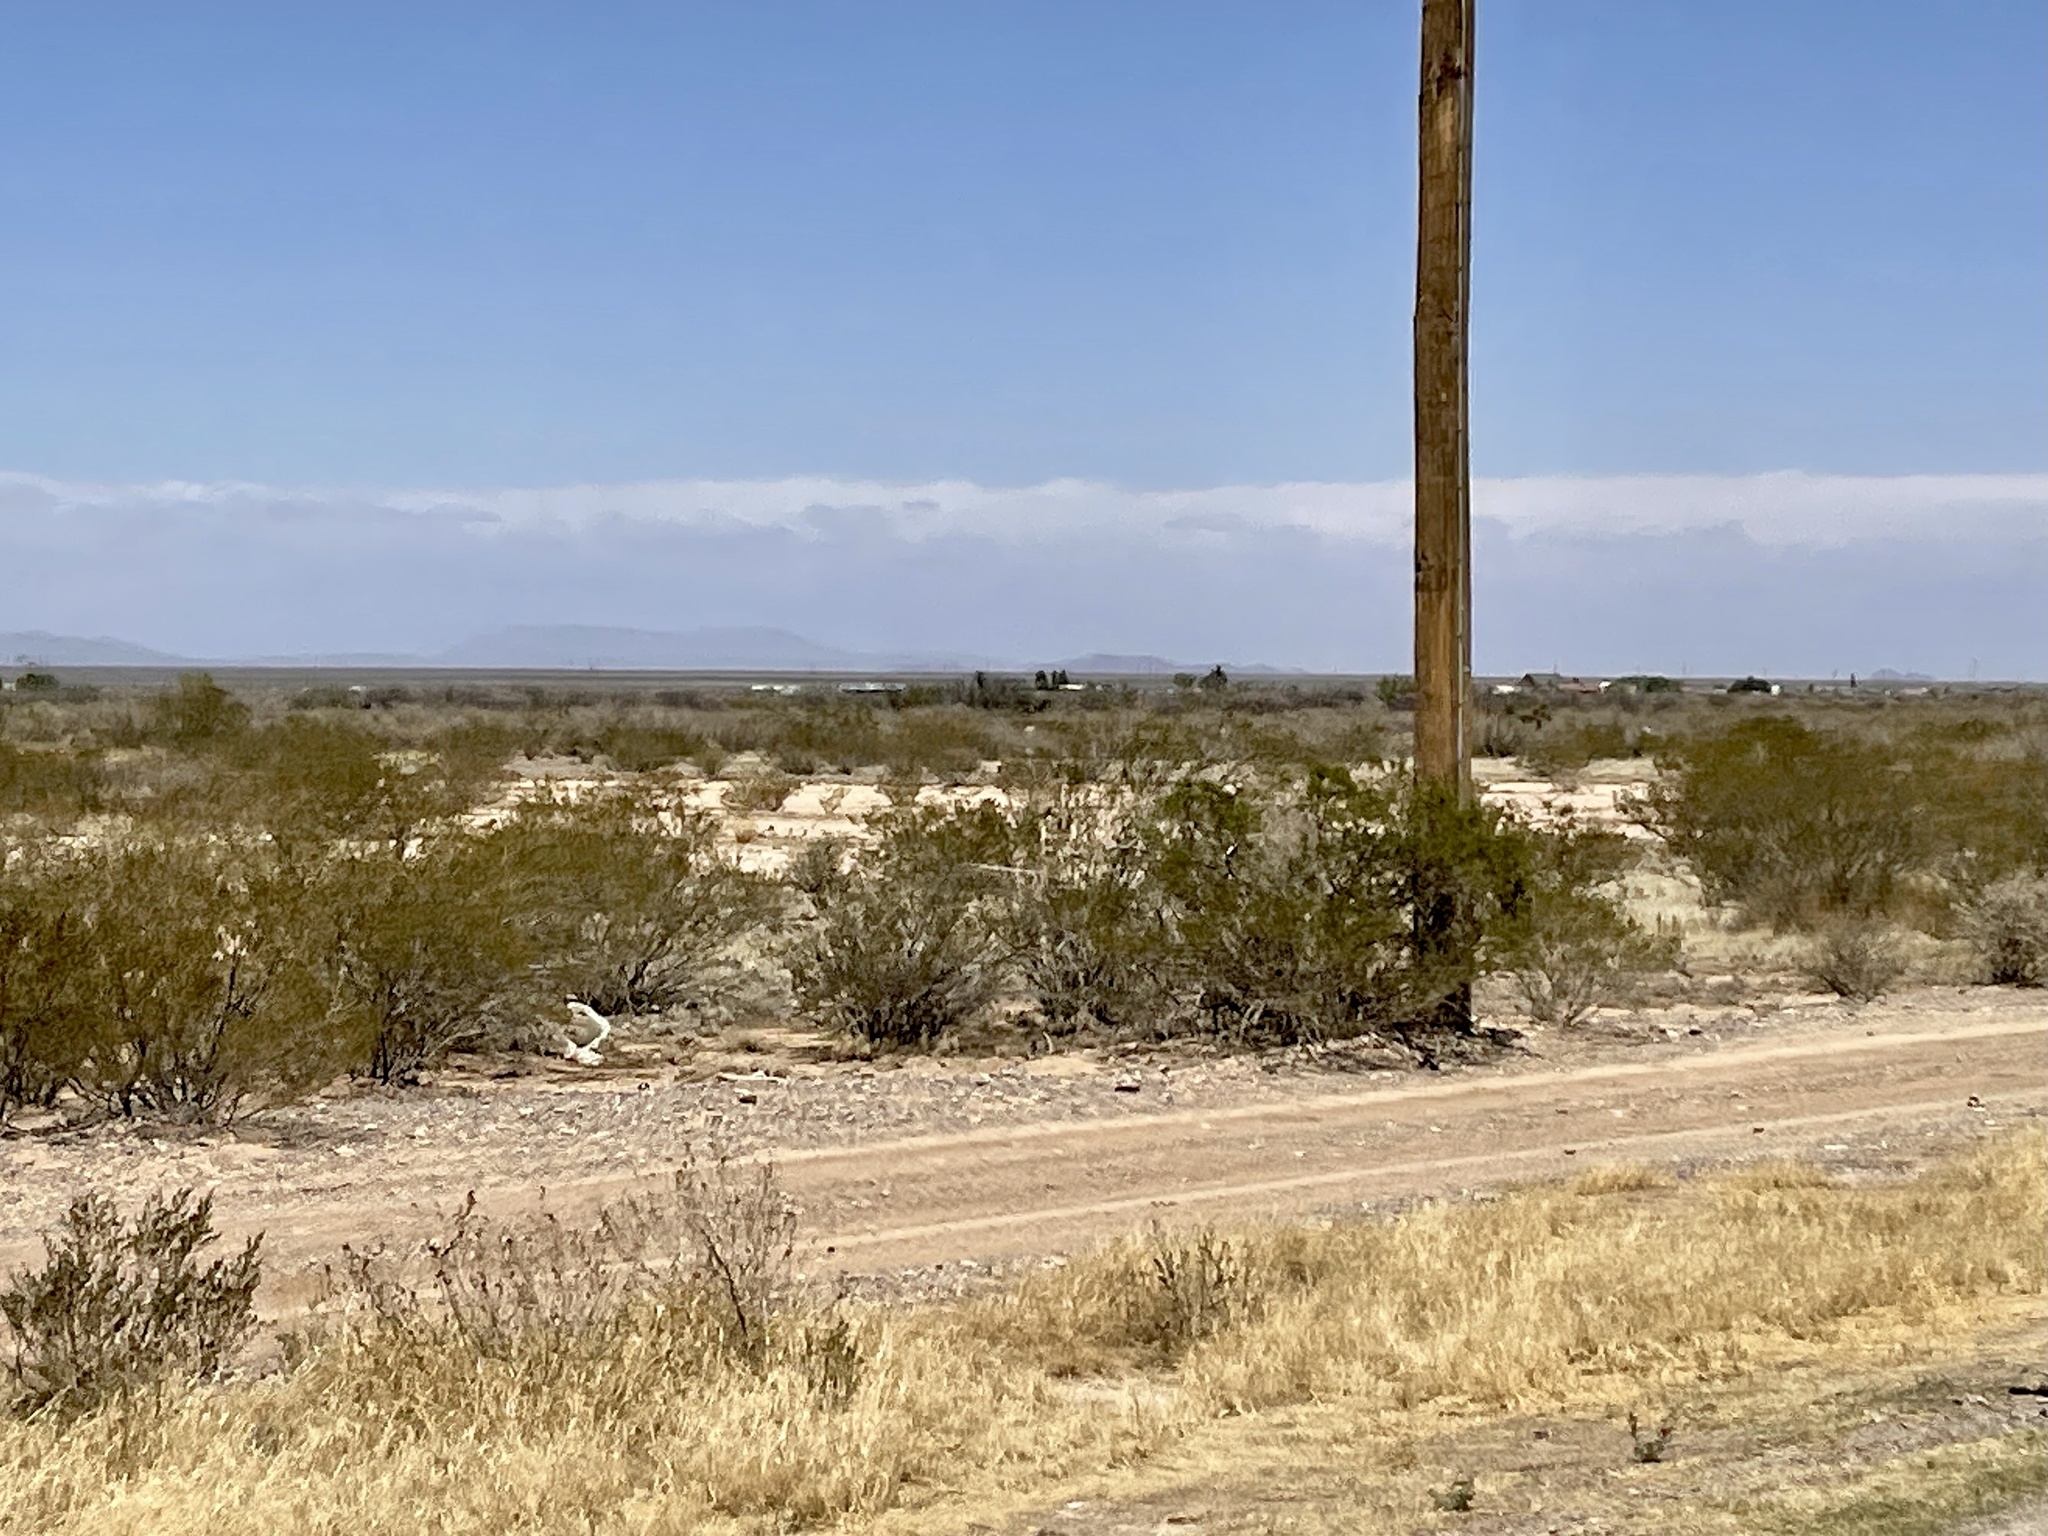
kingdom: Plantae
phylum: Tracheophyta
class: Magnoliopsida
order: Zygophyllales
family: Zygophyllaceae
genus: Larrea
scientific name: Larrea tridentata
